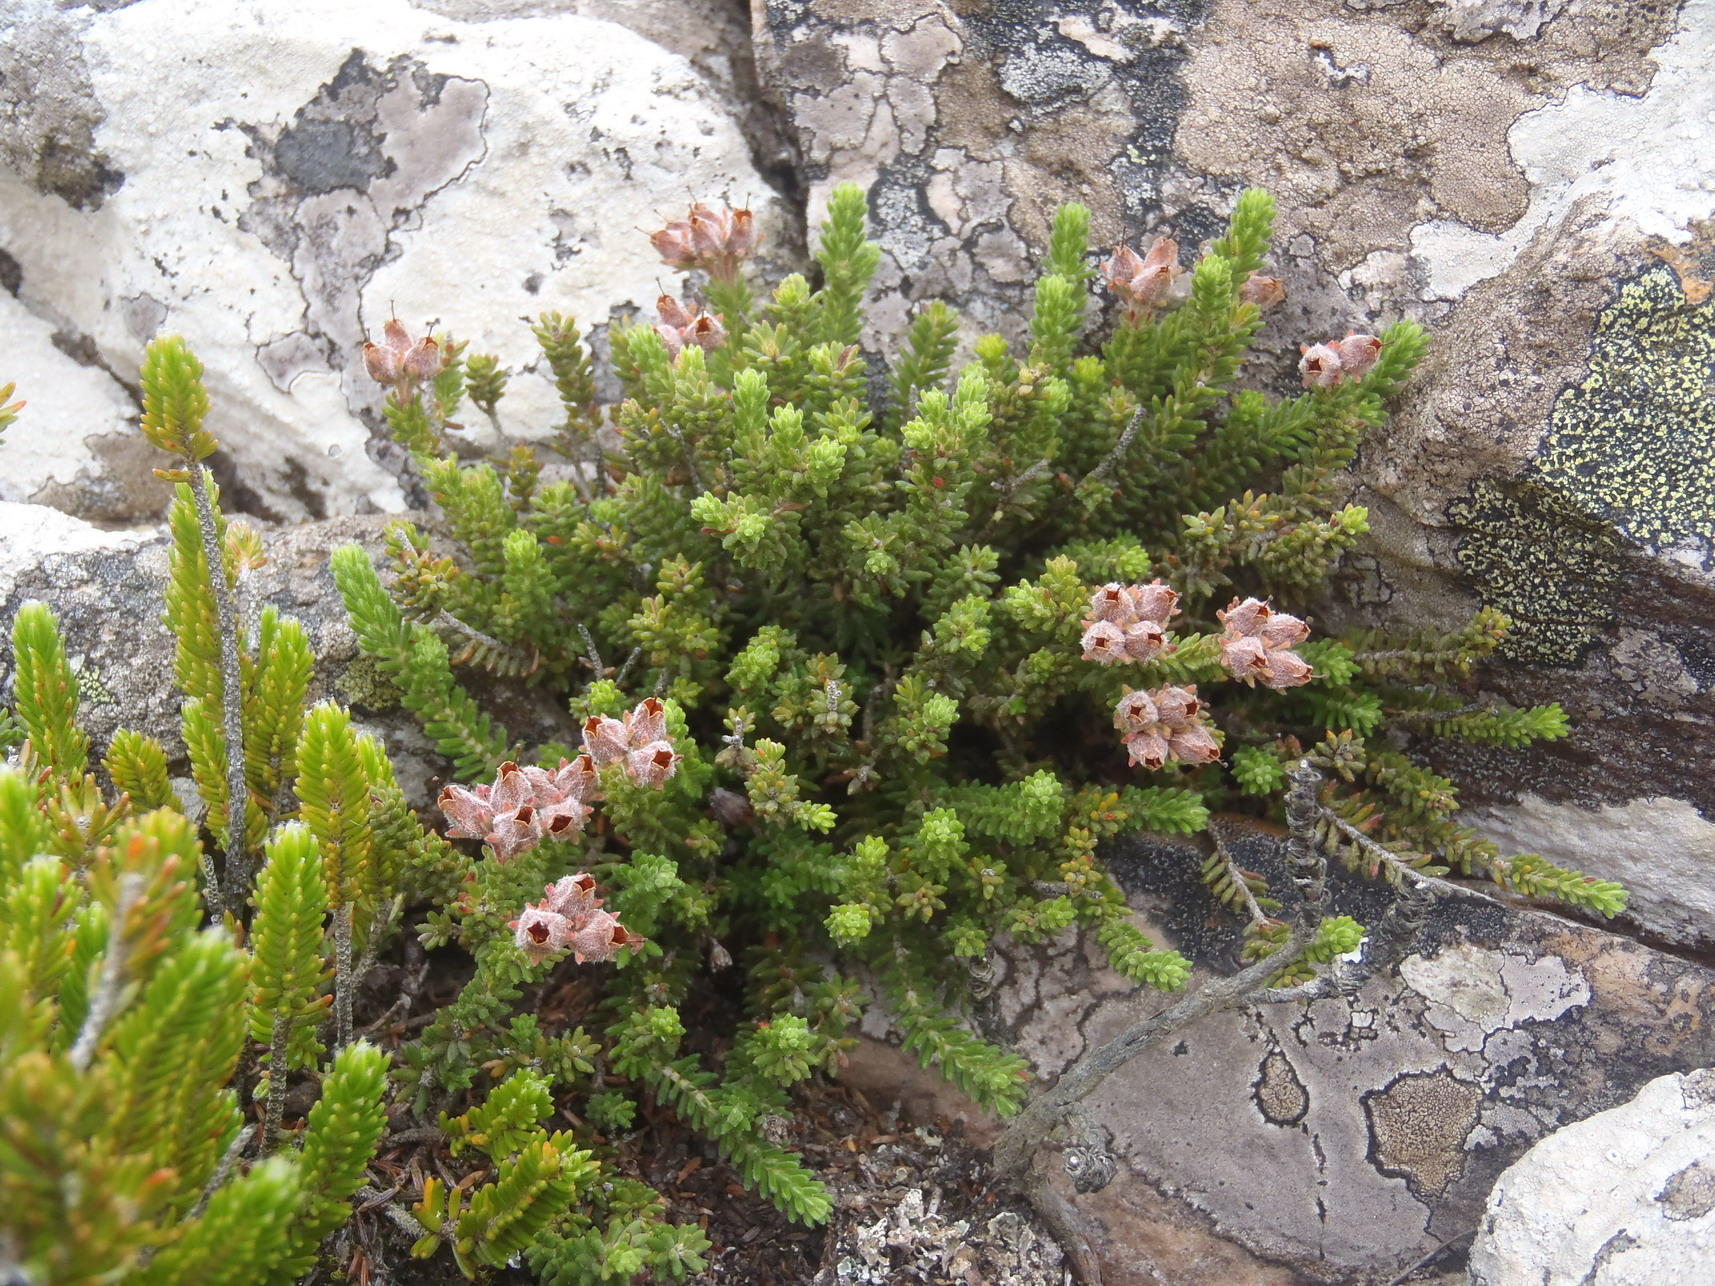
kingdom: Plantae
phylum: Tracheophyta
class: Magnoliopsida
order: Ericales
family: Ericaceae
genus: Erica
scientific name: Erica lignosa
